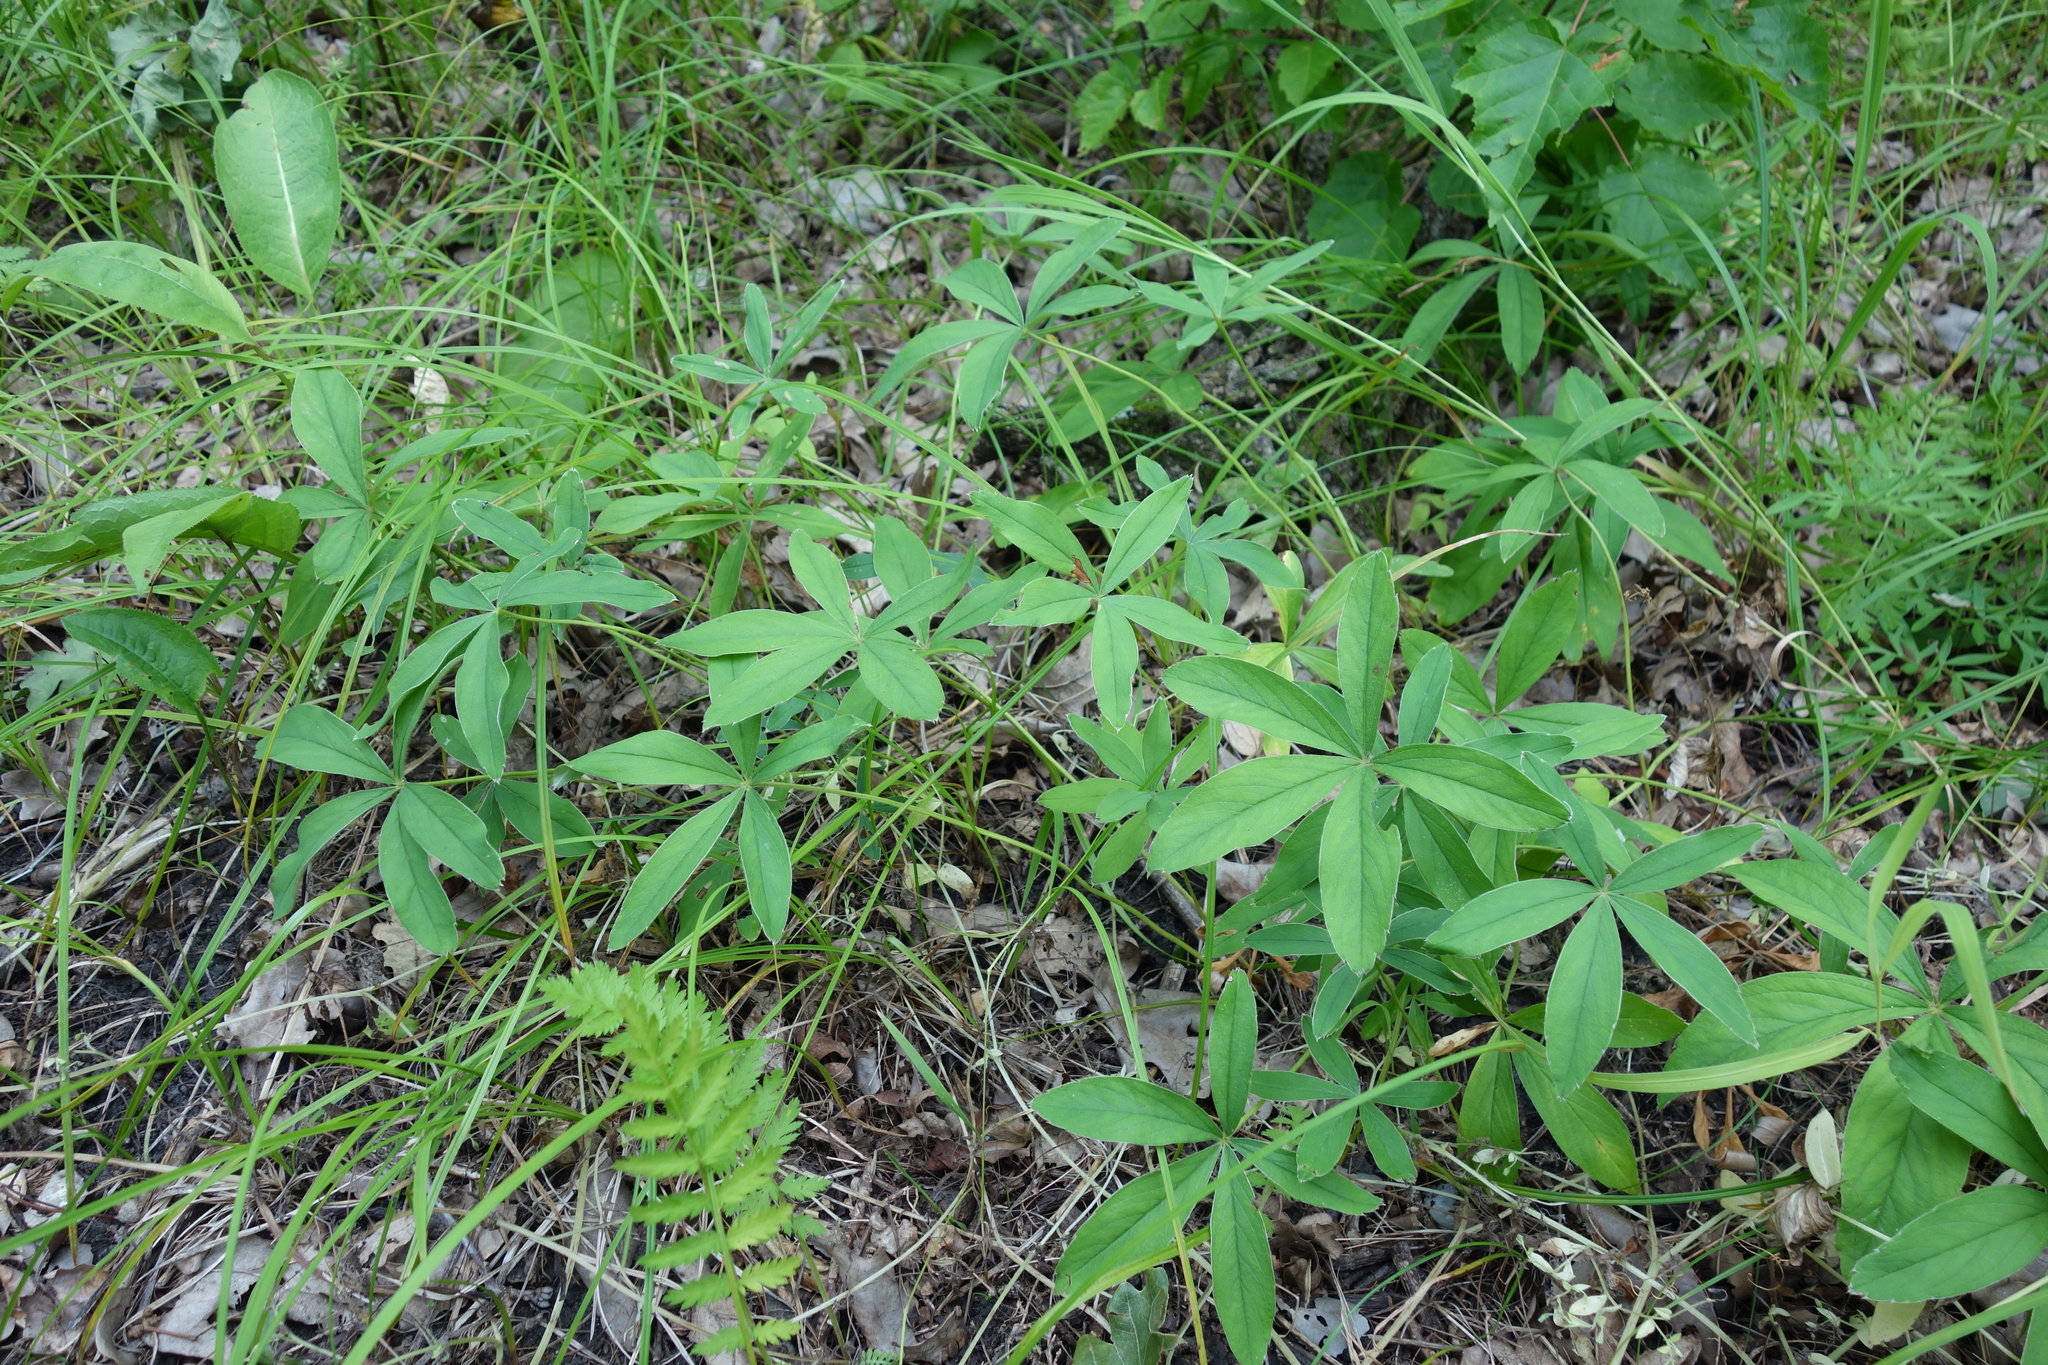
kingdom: Plantae
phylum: Tracheophyta
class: Magnoliopsida
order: Rosales
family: Rosaceae
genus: Potentilla
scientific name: Potentilla alba
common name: White cinquefoil
